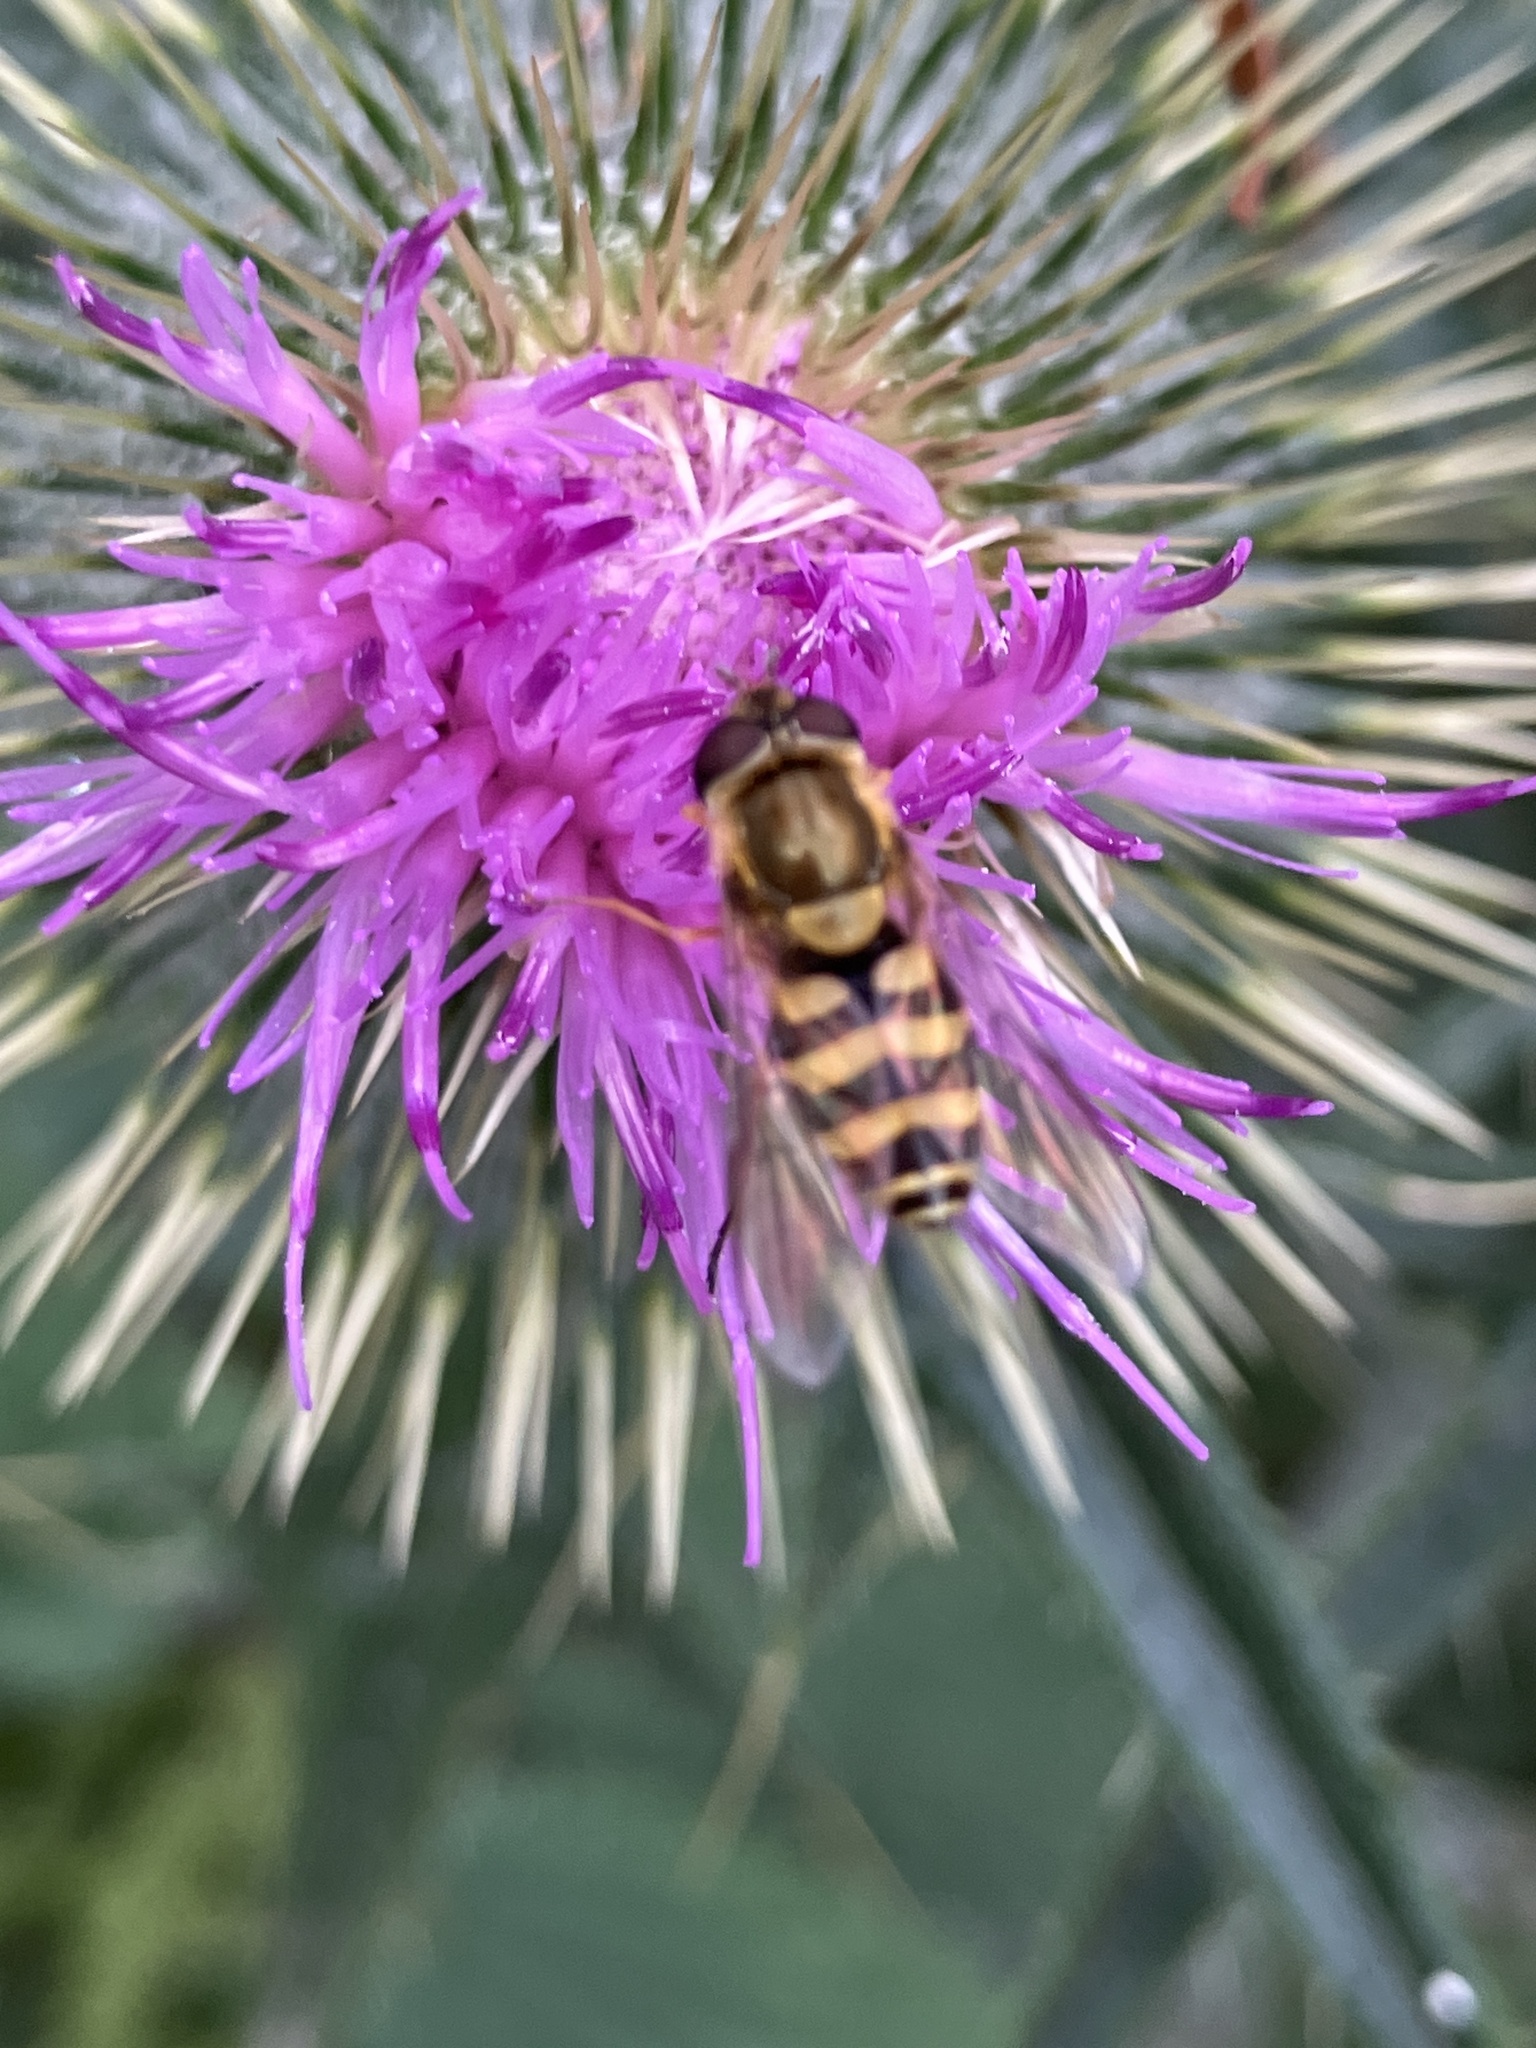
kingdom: Animalia
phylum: Arthropoda
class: Insecta
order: Diptera
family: Syrphidae
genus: Syrphus
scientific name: Syrphus
